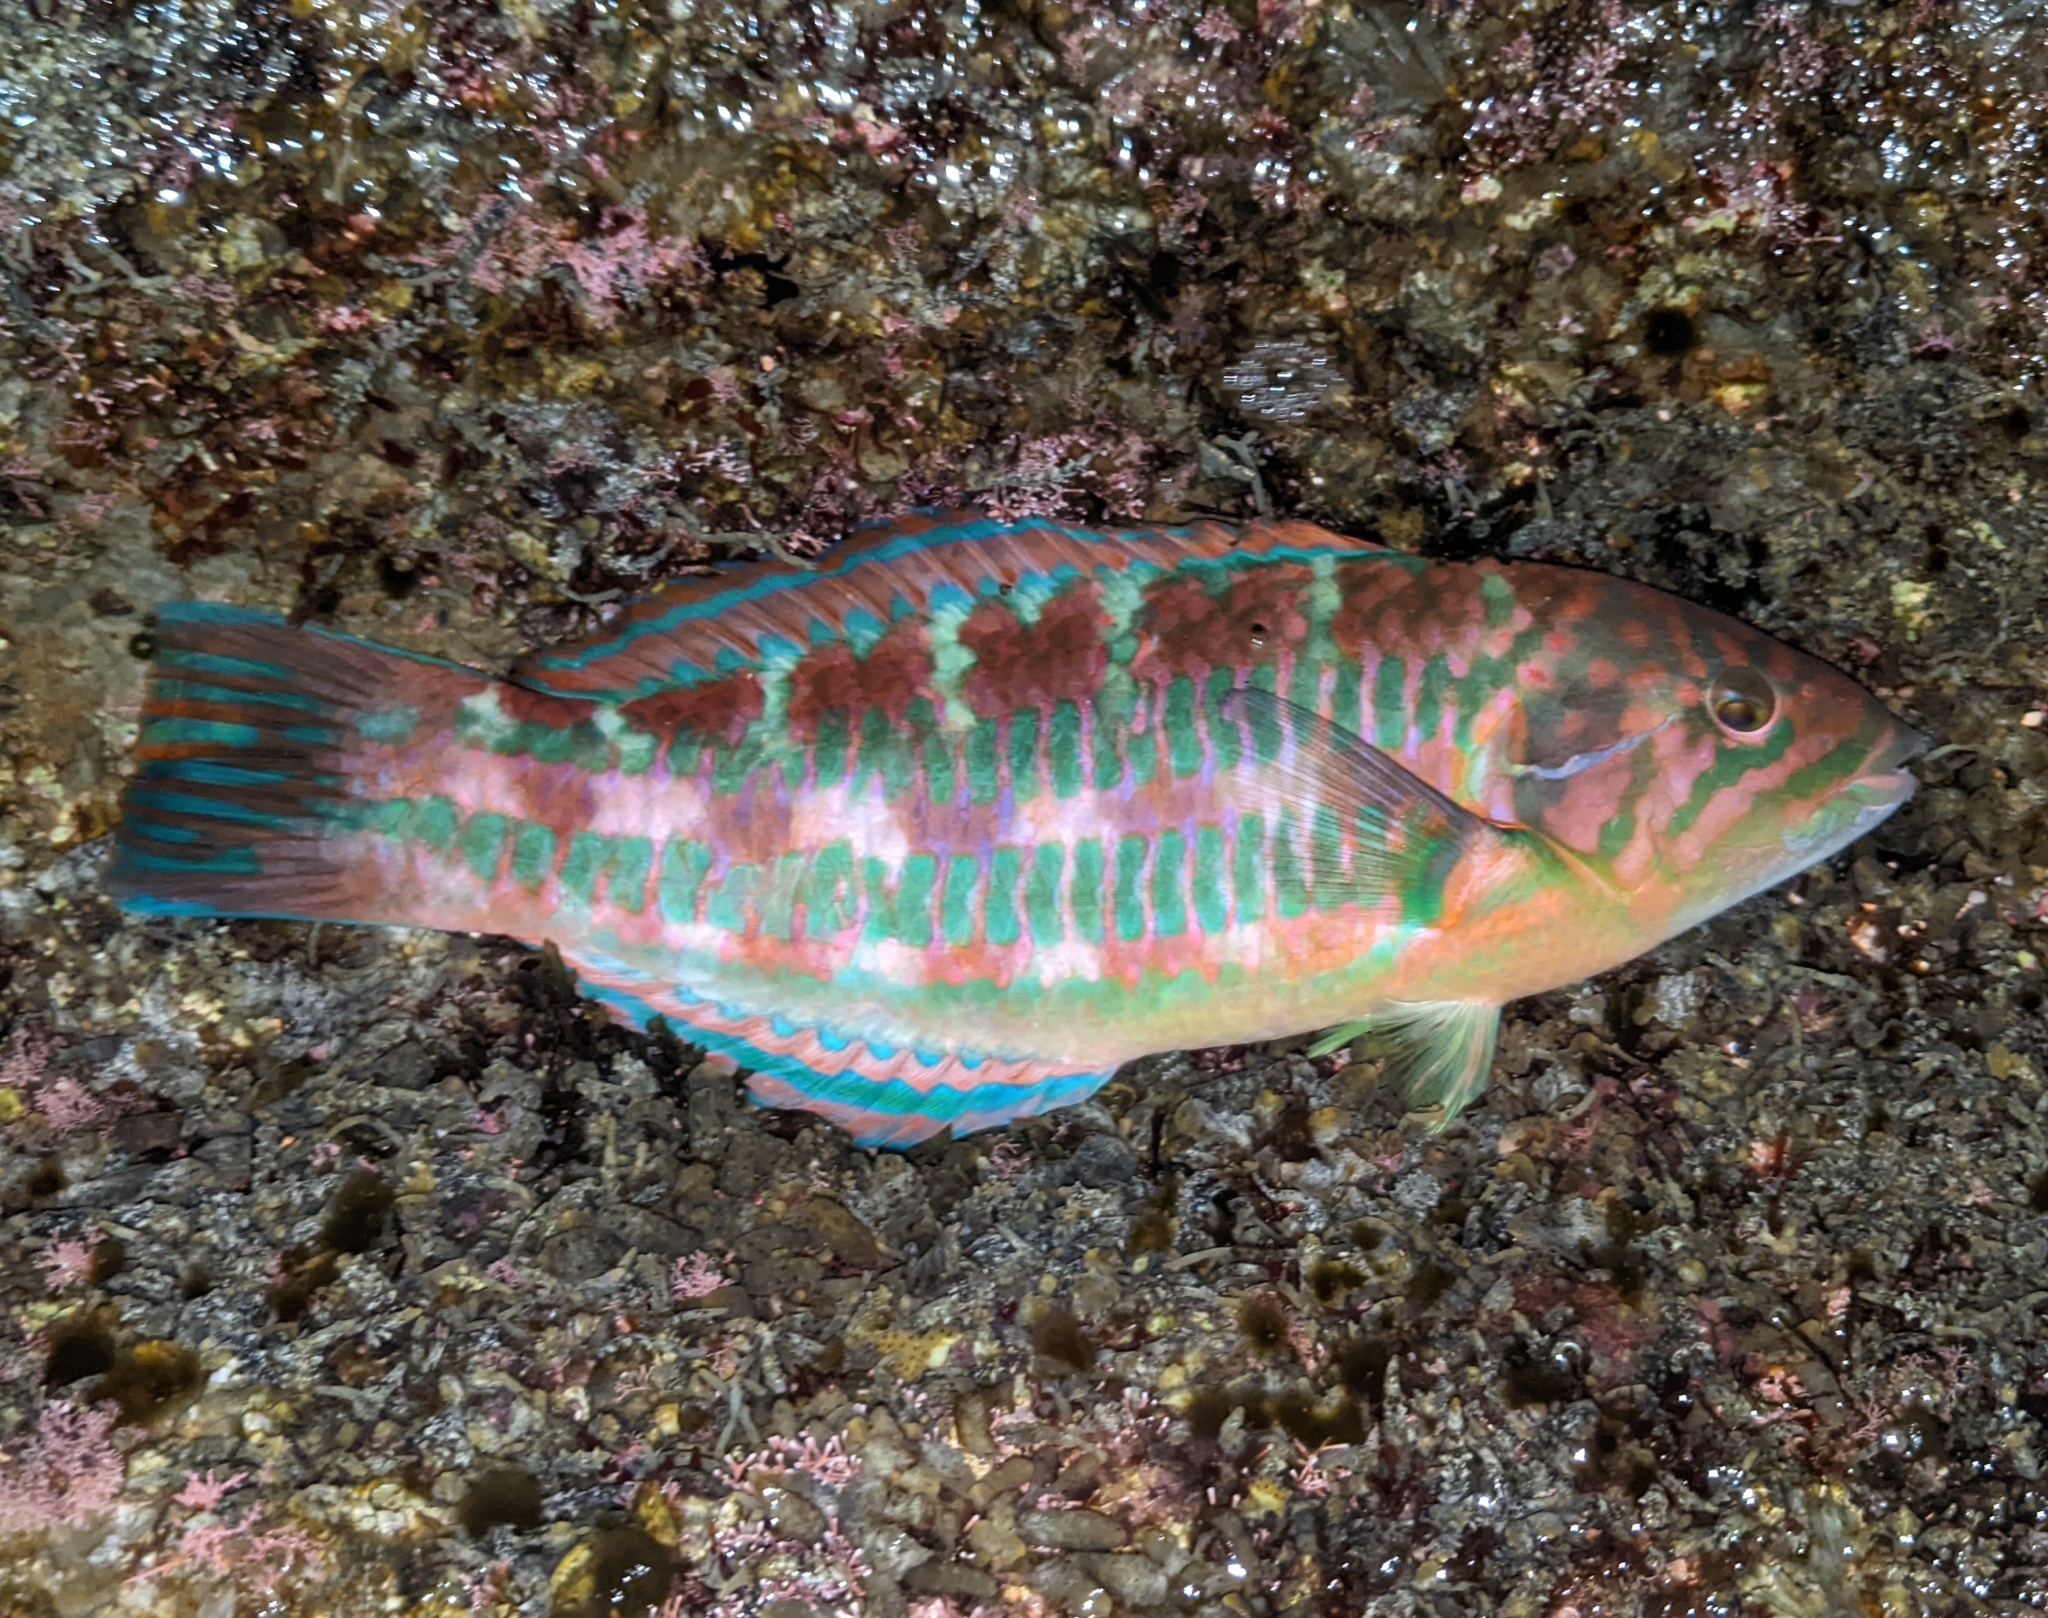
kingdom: Animalia
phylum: Chordata
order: Perciformes
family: Labridae
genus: Thalassoma
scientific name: Thalassoma trilobatum
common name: Christmas wrasse
